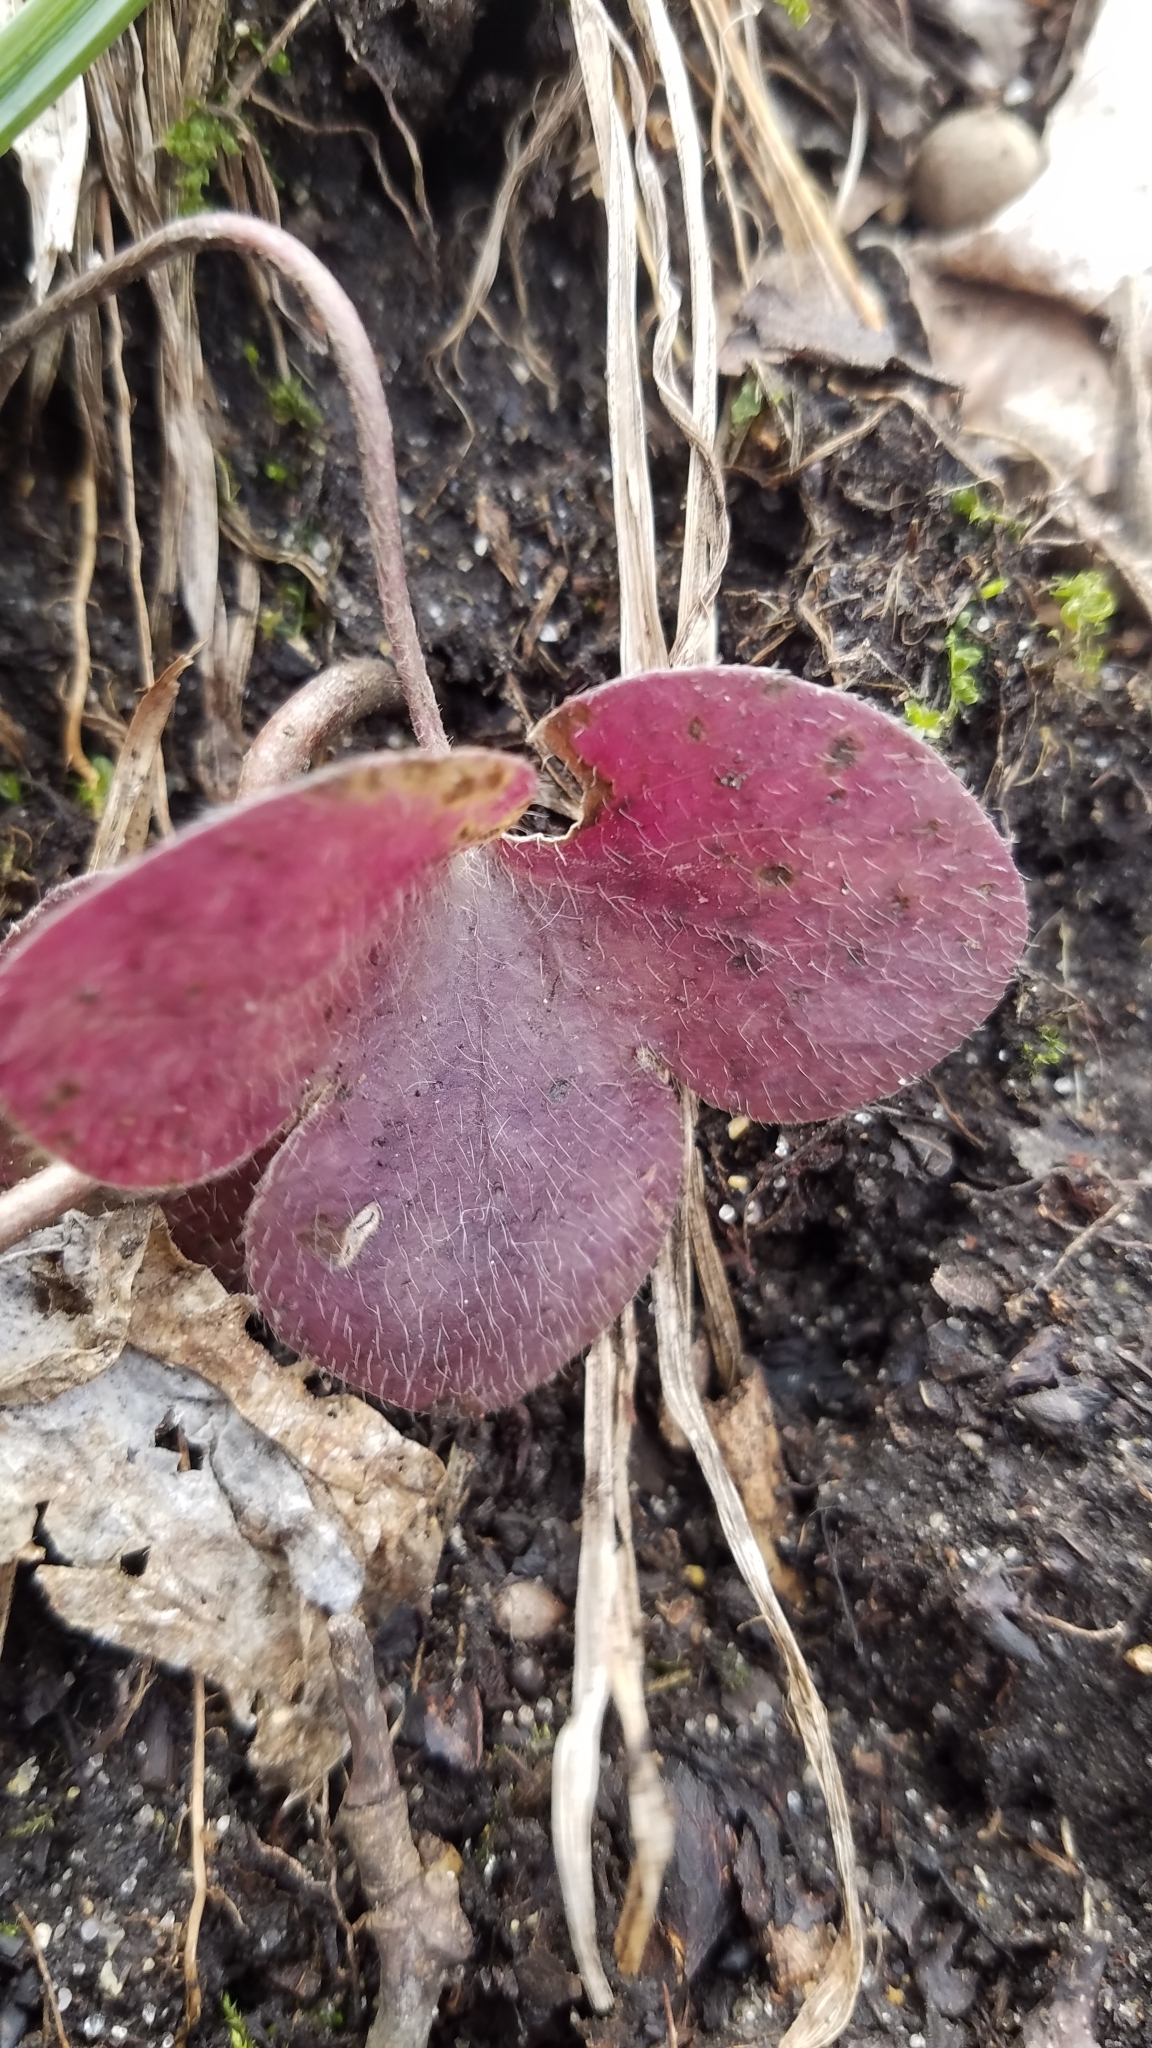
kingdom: Plantae
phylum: Tracheophyta
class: Magnoliopsida
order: Ranunculales
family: Ranunculaceae
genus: Hepatica
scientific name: Hepatica americana
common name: American hepatica
